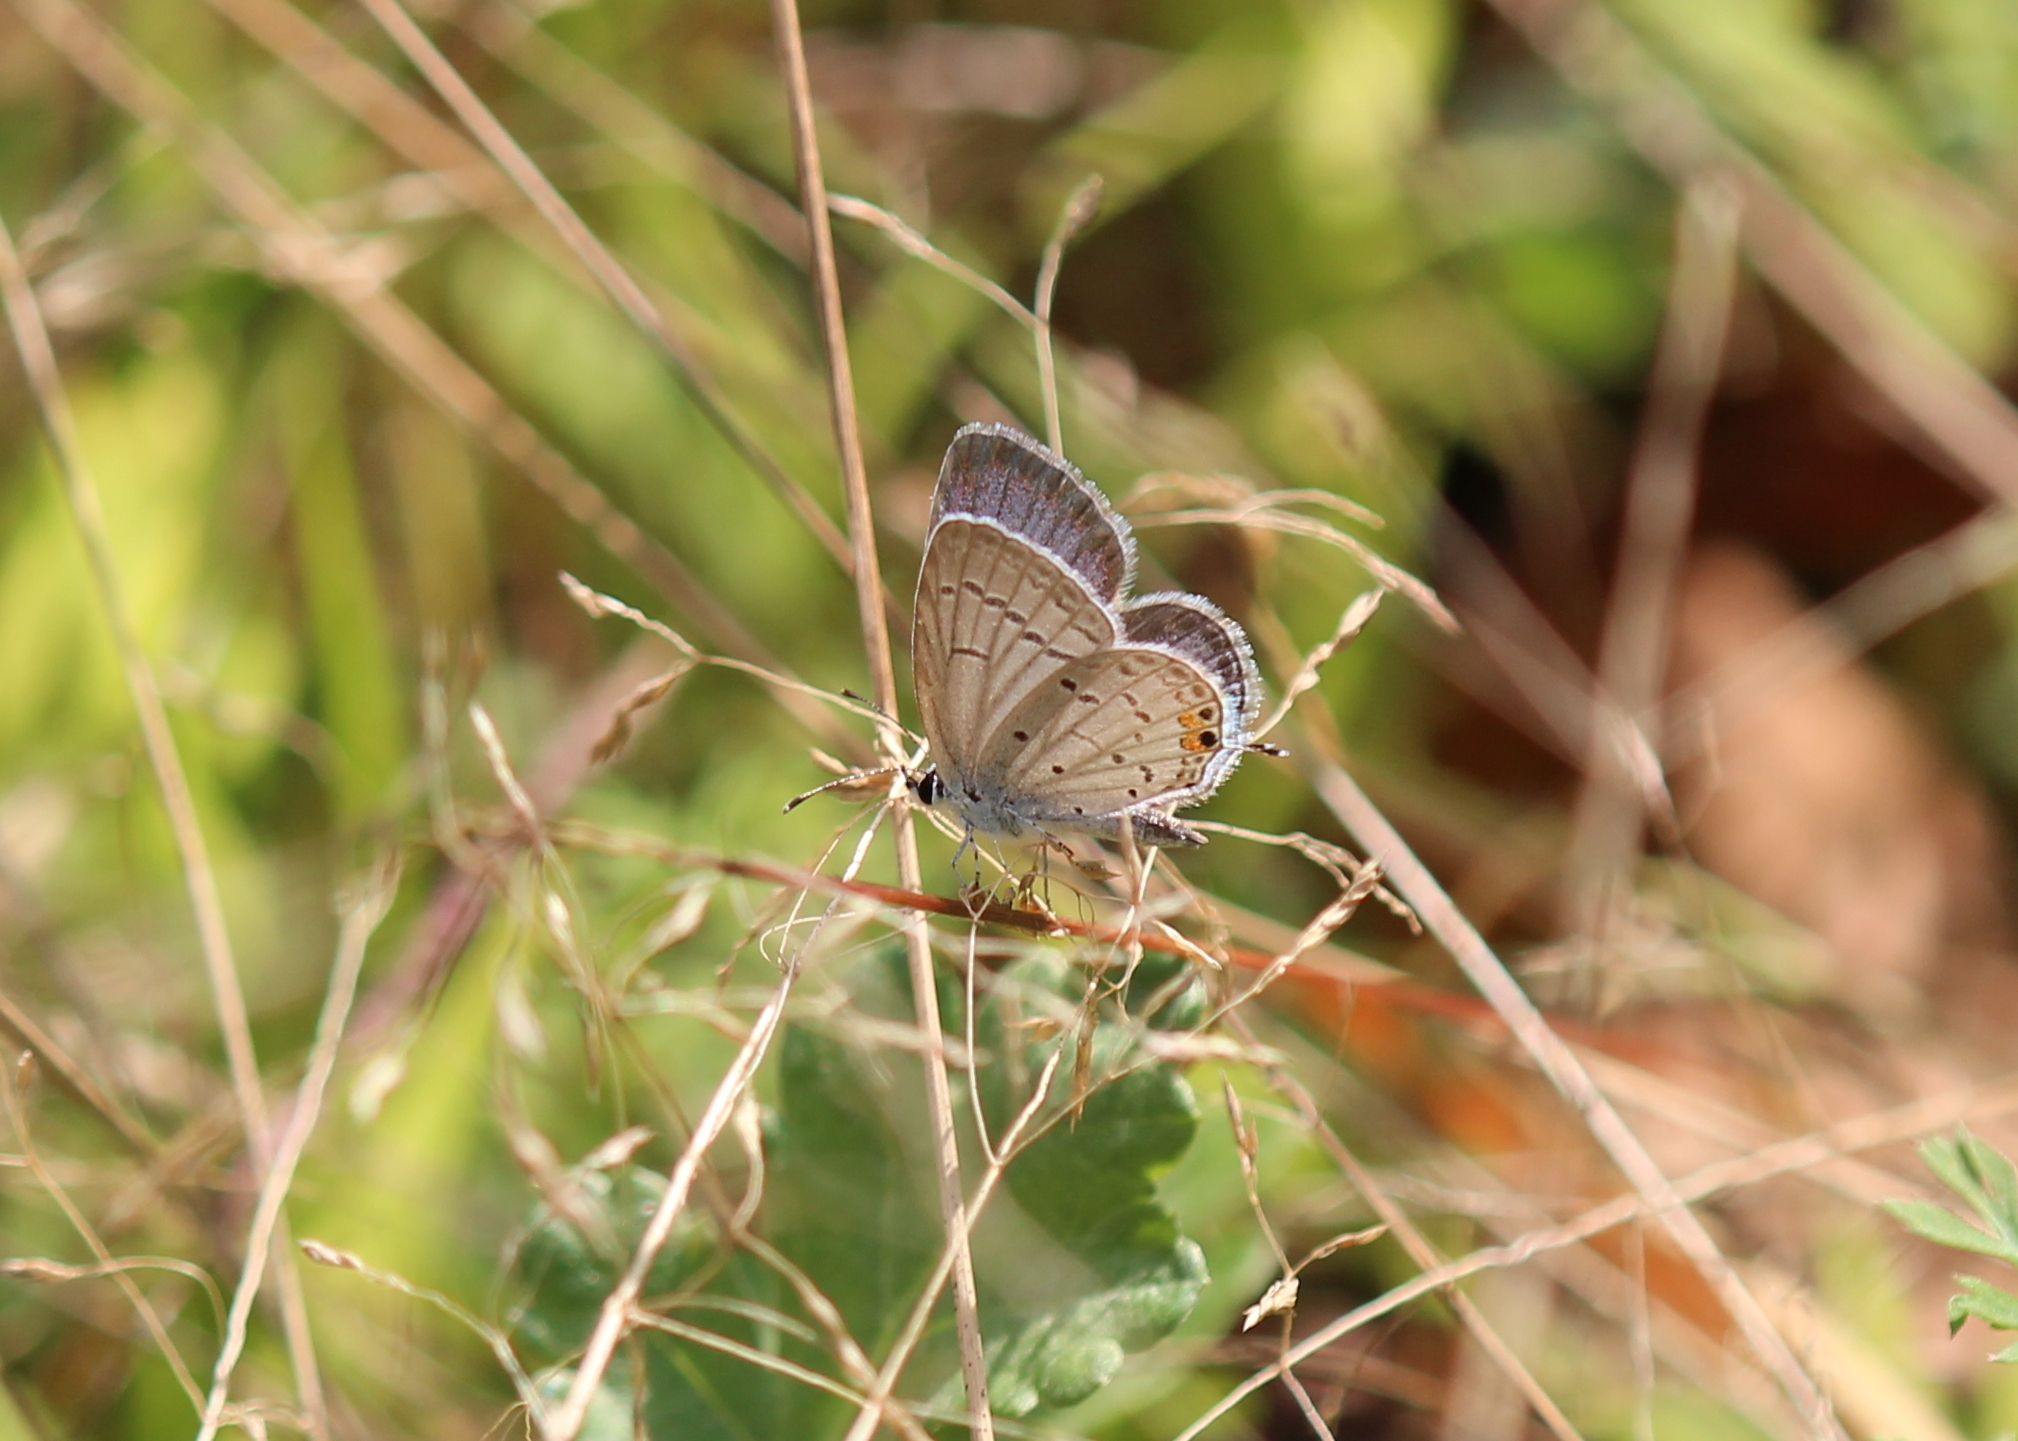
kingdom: Animalia
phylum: Arthropoda
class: Insecta
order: Lepidoptera
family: Lycaenidae
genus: Elkalyce
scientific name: Elkalyce comyntas
